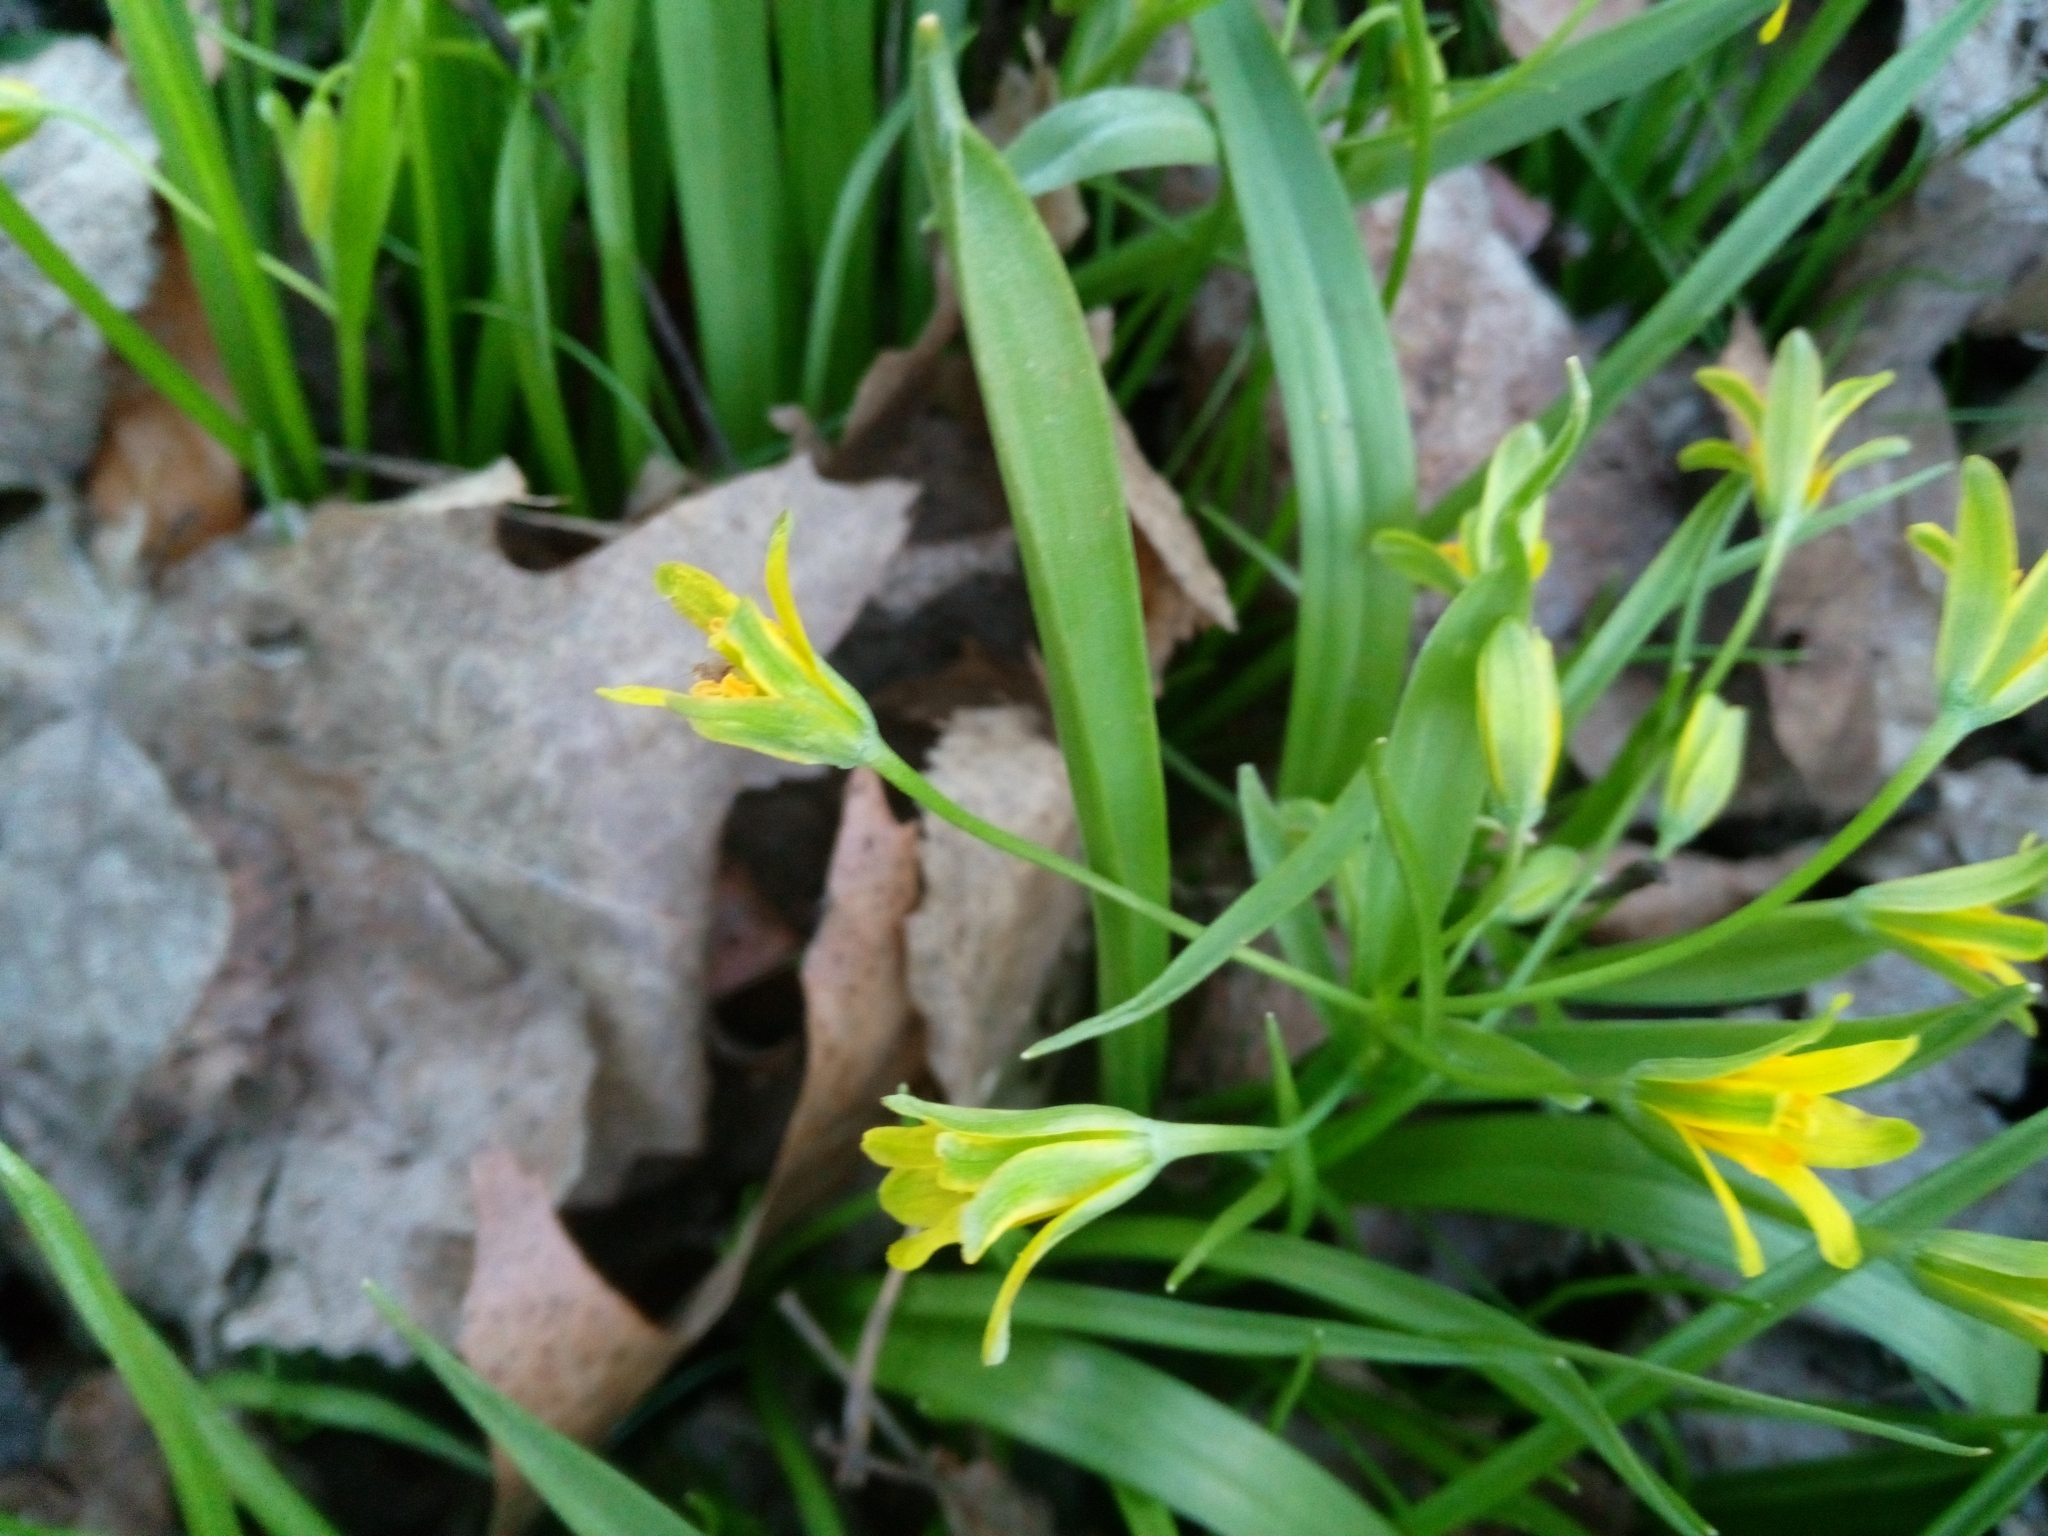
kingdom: Plantae
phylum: Tracheophyta
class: Liliopsida
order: Liliales
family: Liliaceae
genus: Gagea
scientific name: Gagea lutea
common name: Yellow star-of-bethlehem
